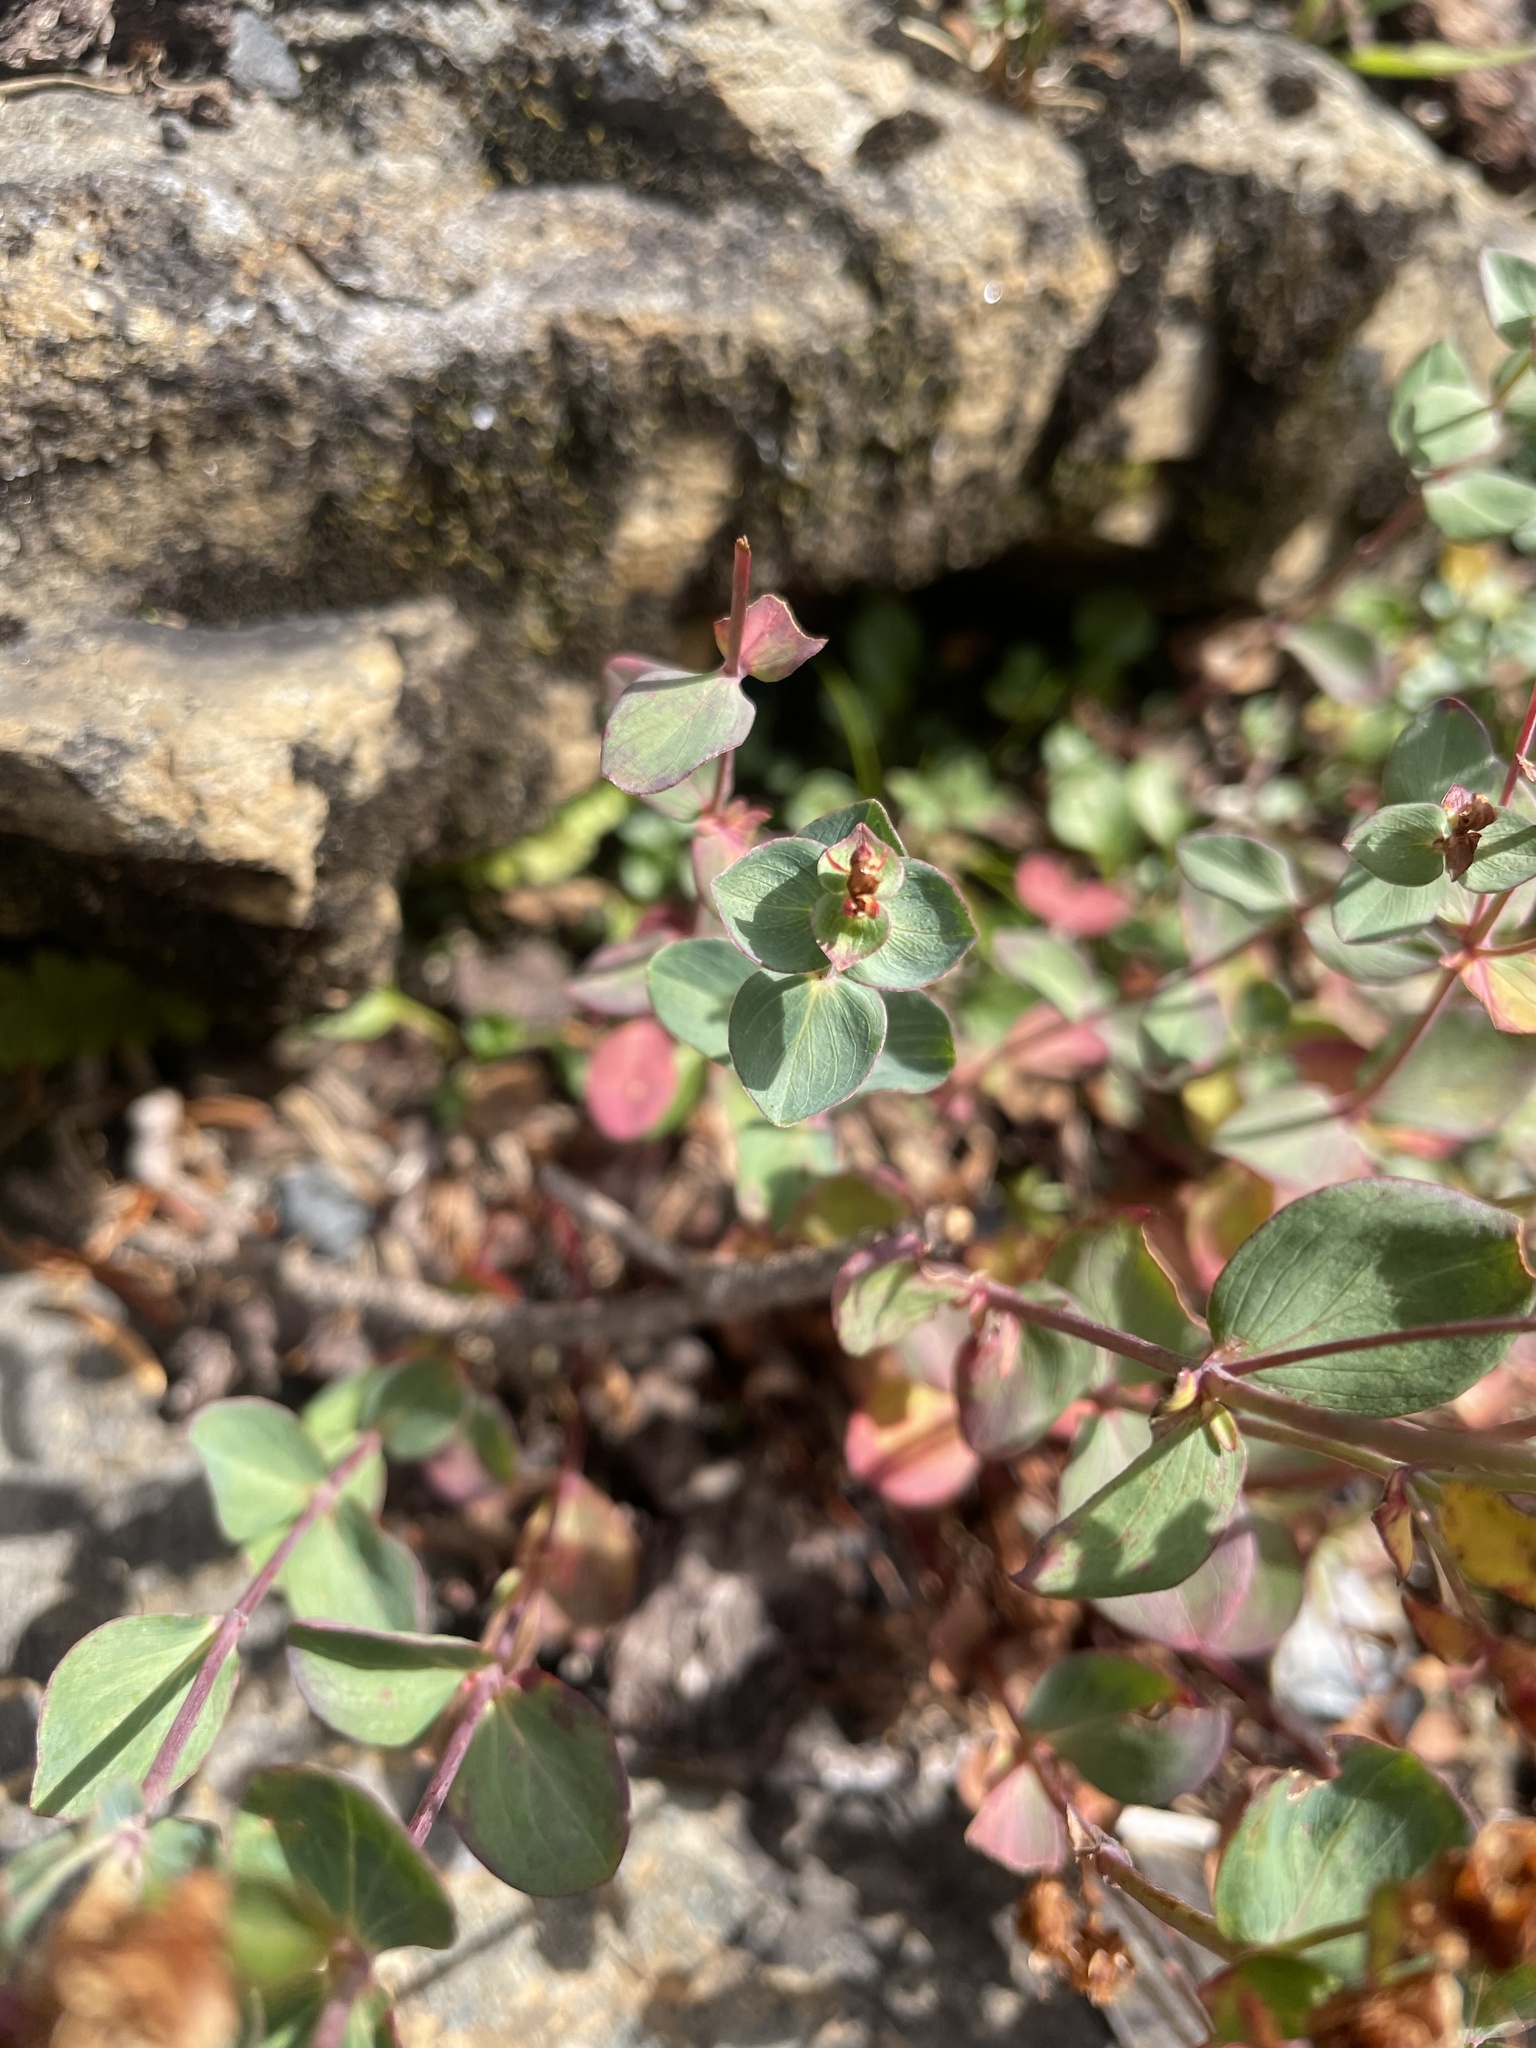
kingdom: Plantae
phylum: Tracheophyta
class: Magnoliopsida
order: Malpighiales
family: Hypericaceae
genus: Hypericum
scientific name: Hypericum scouleri
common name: Scouler's st. john's-wort
